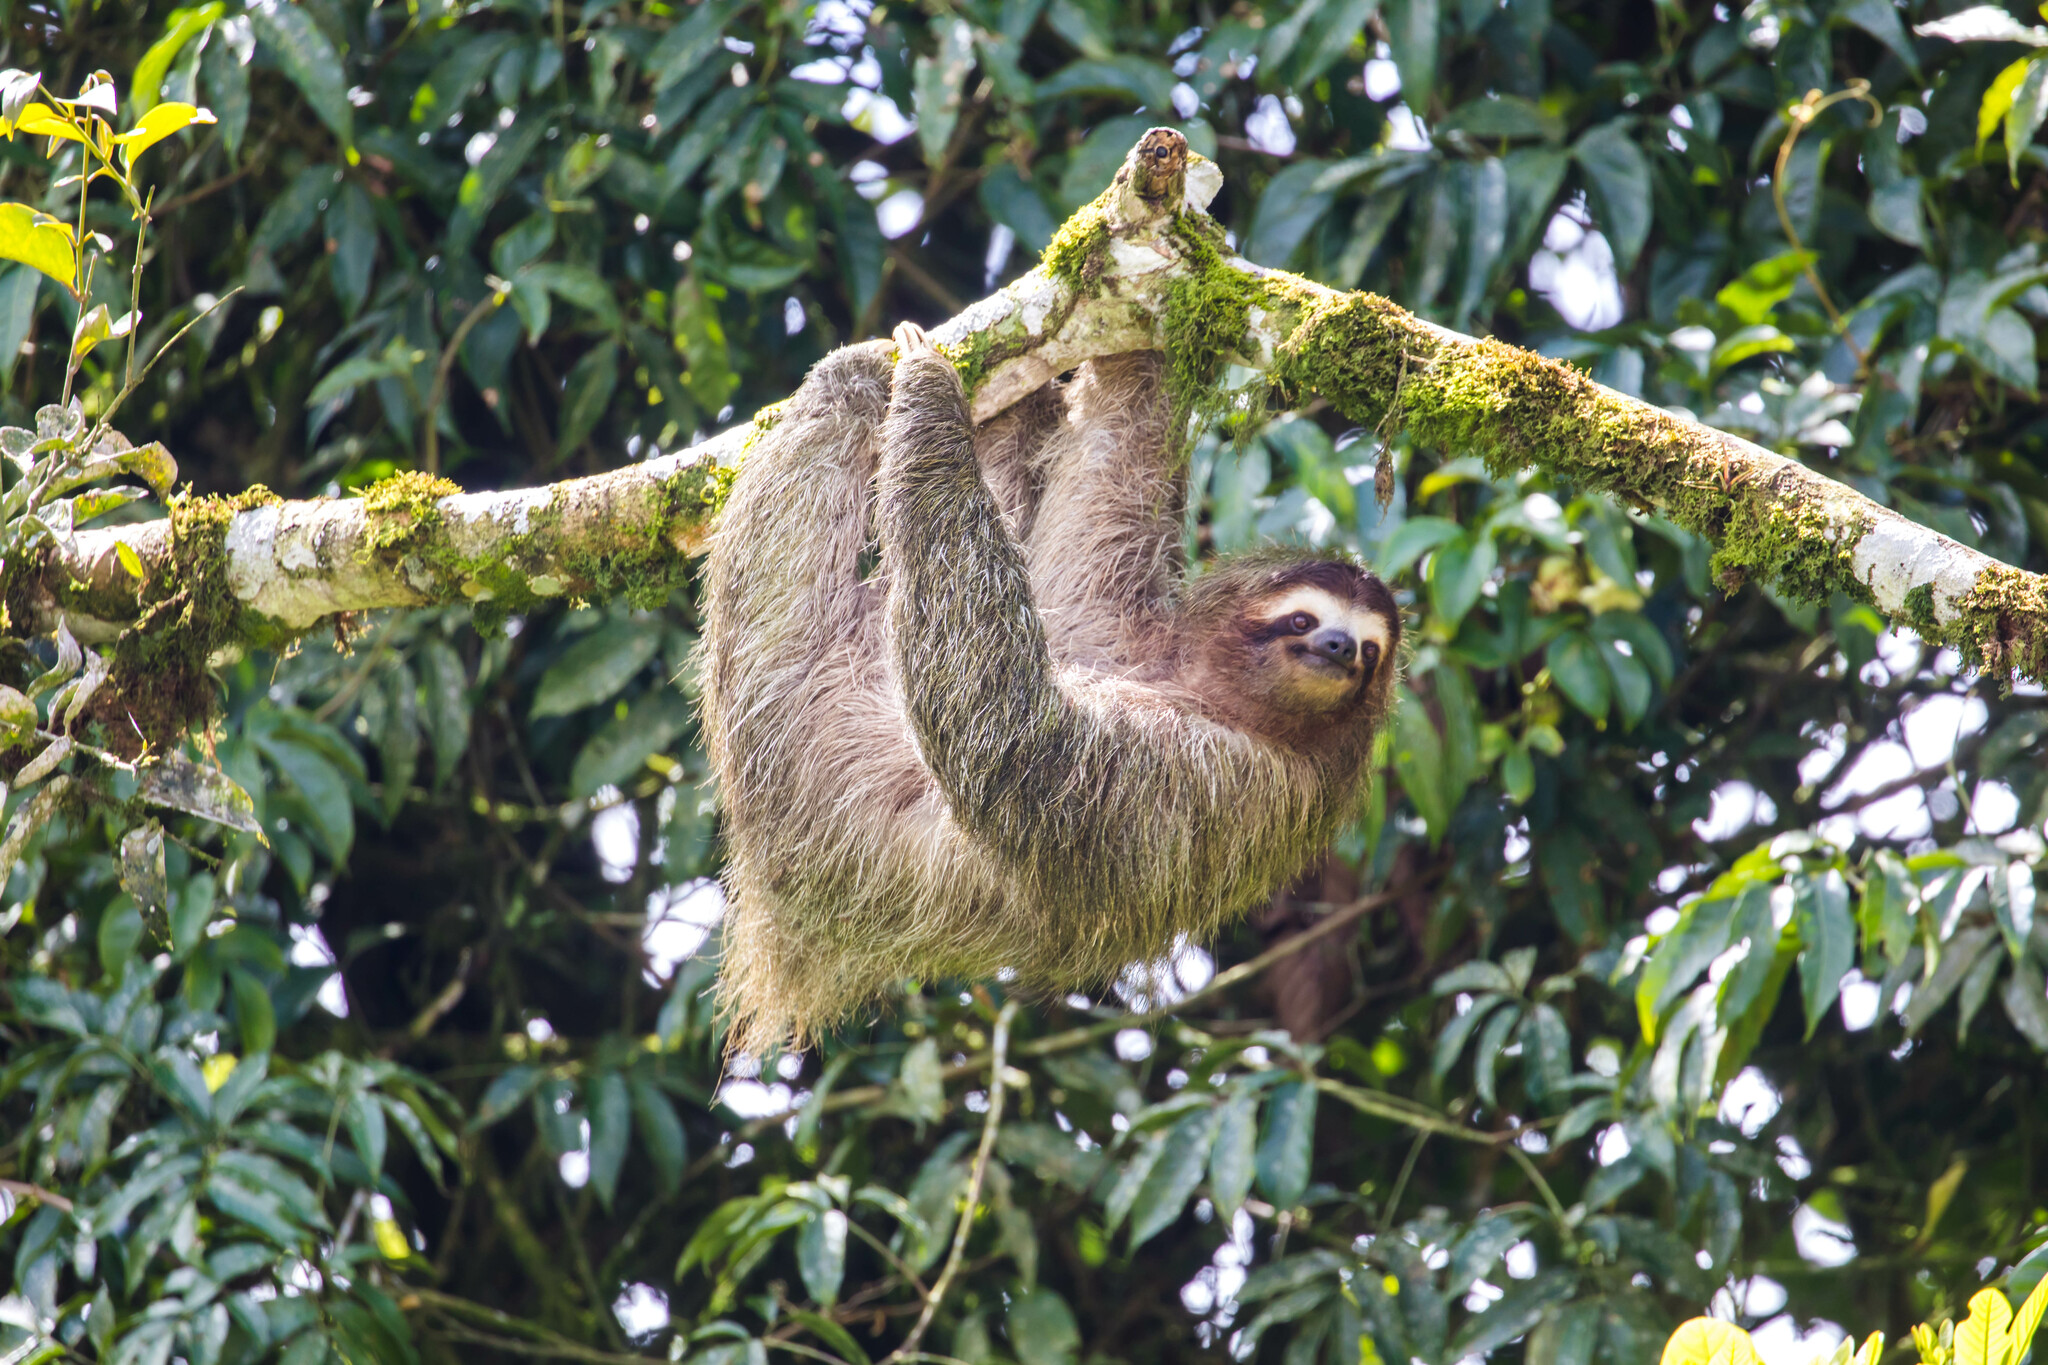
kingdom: Animalia
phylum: Chordata
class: Mammalia
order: Pilosa
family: Bradypodidae
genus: Bradypus
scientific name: Bradypus variegatus
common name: Brown-throated three-toed sloth
